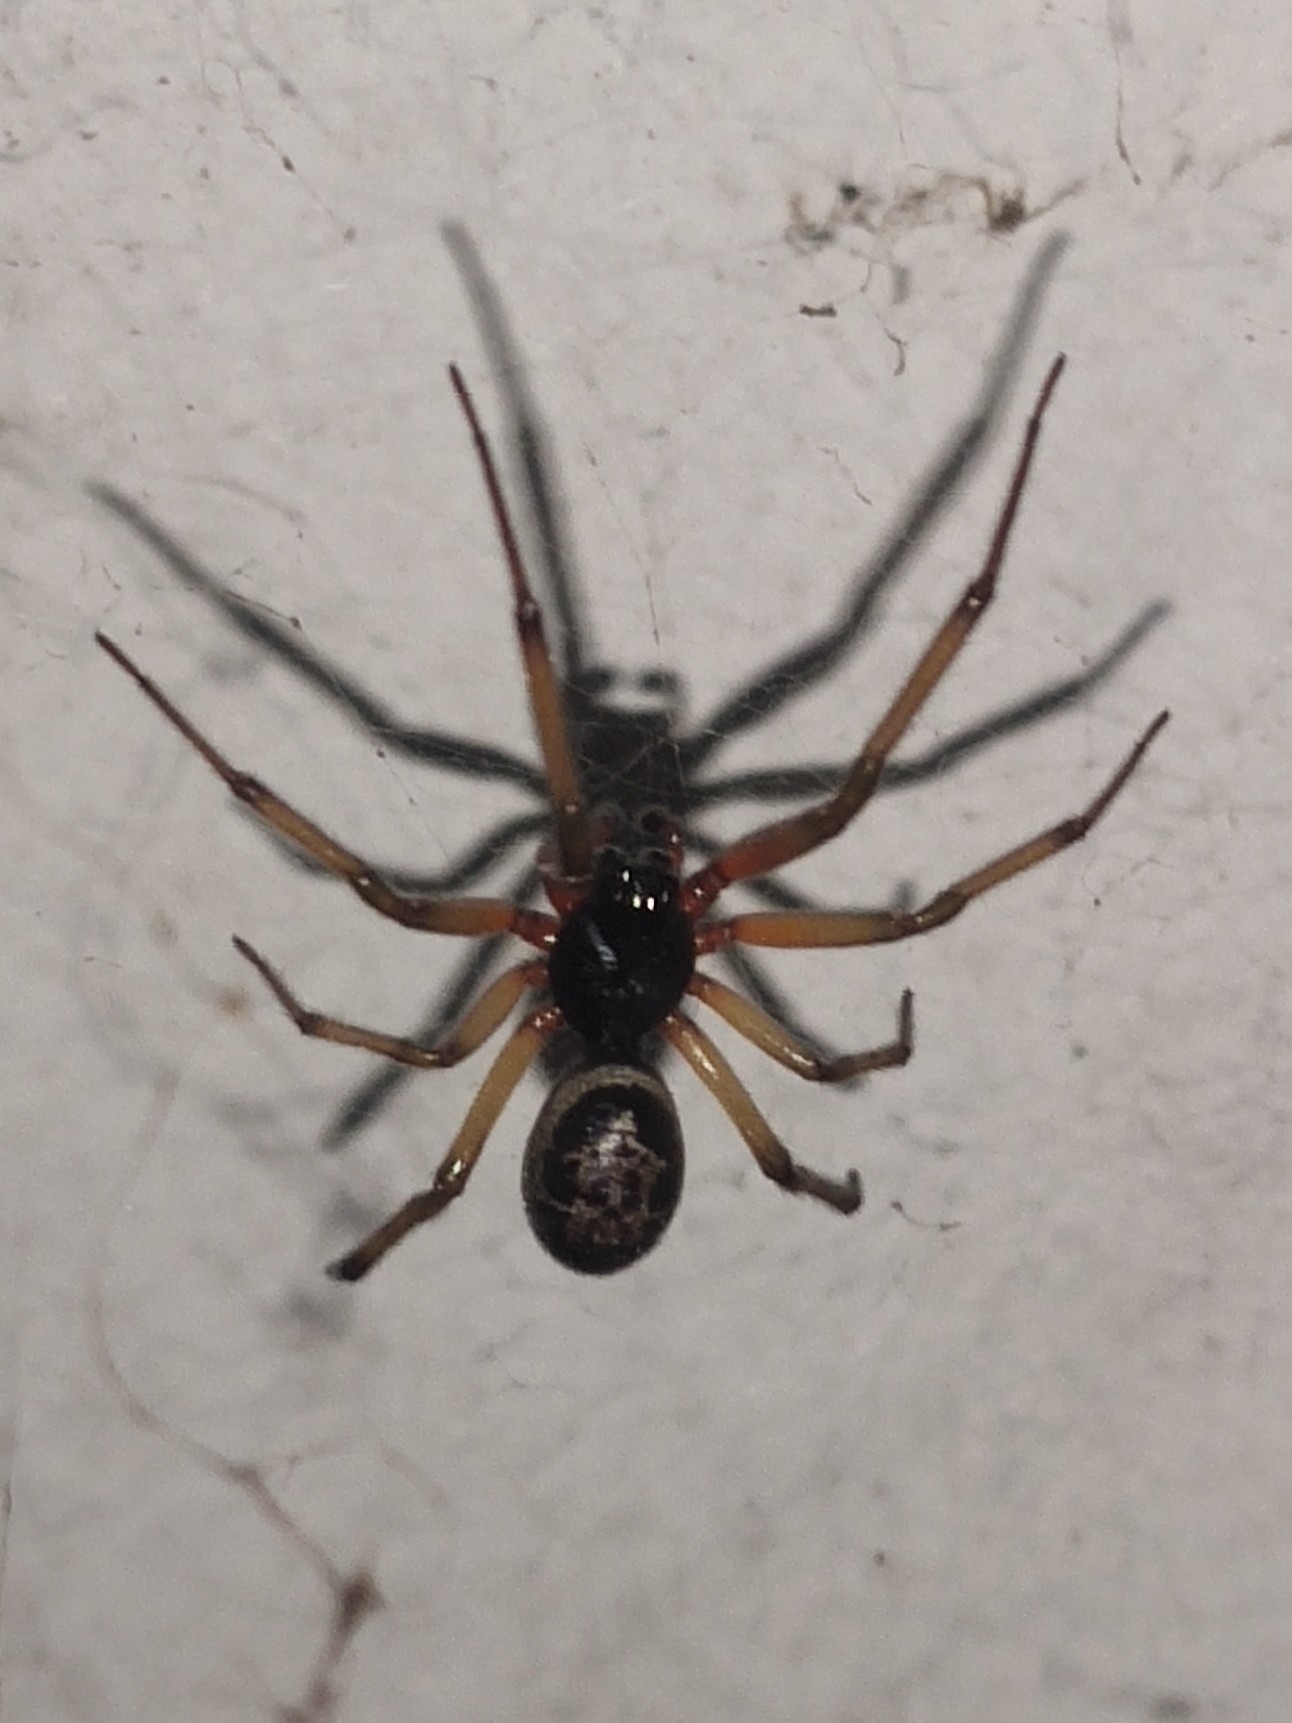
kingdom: Animalia
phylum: Arthropoda
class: Arachnida
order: Araneae
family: Theridiidae
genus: Steatoda
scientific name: Steatoda nobilis
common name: Cobweb weaver
